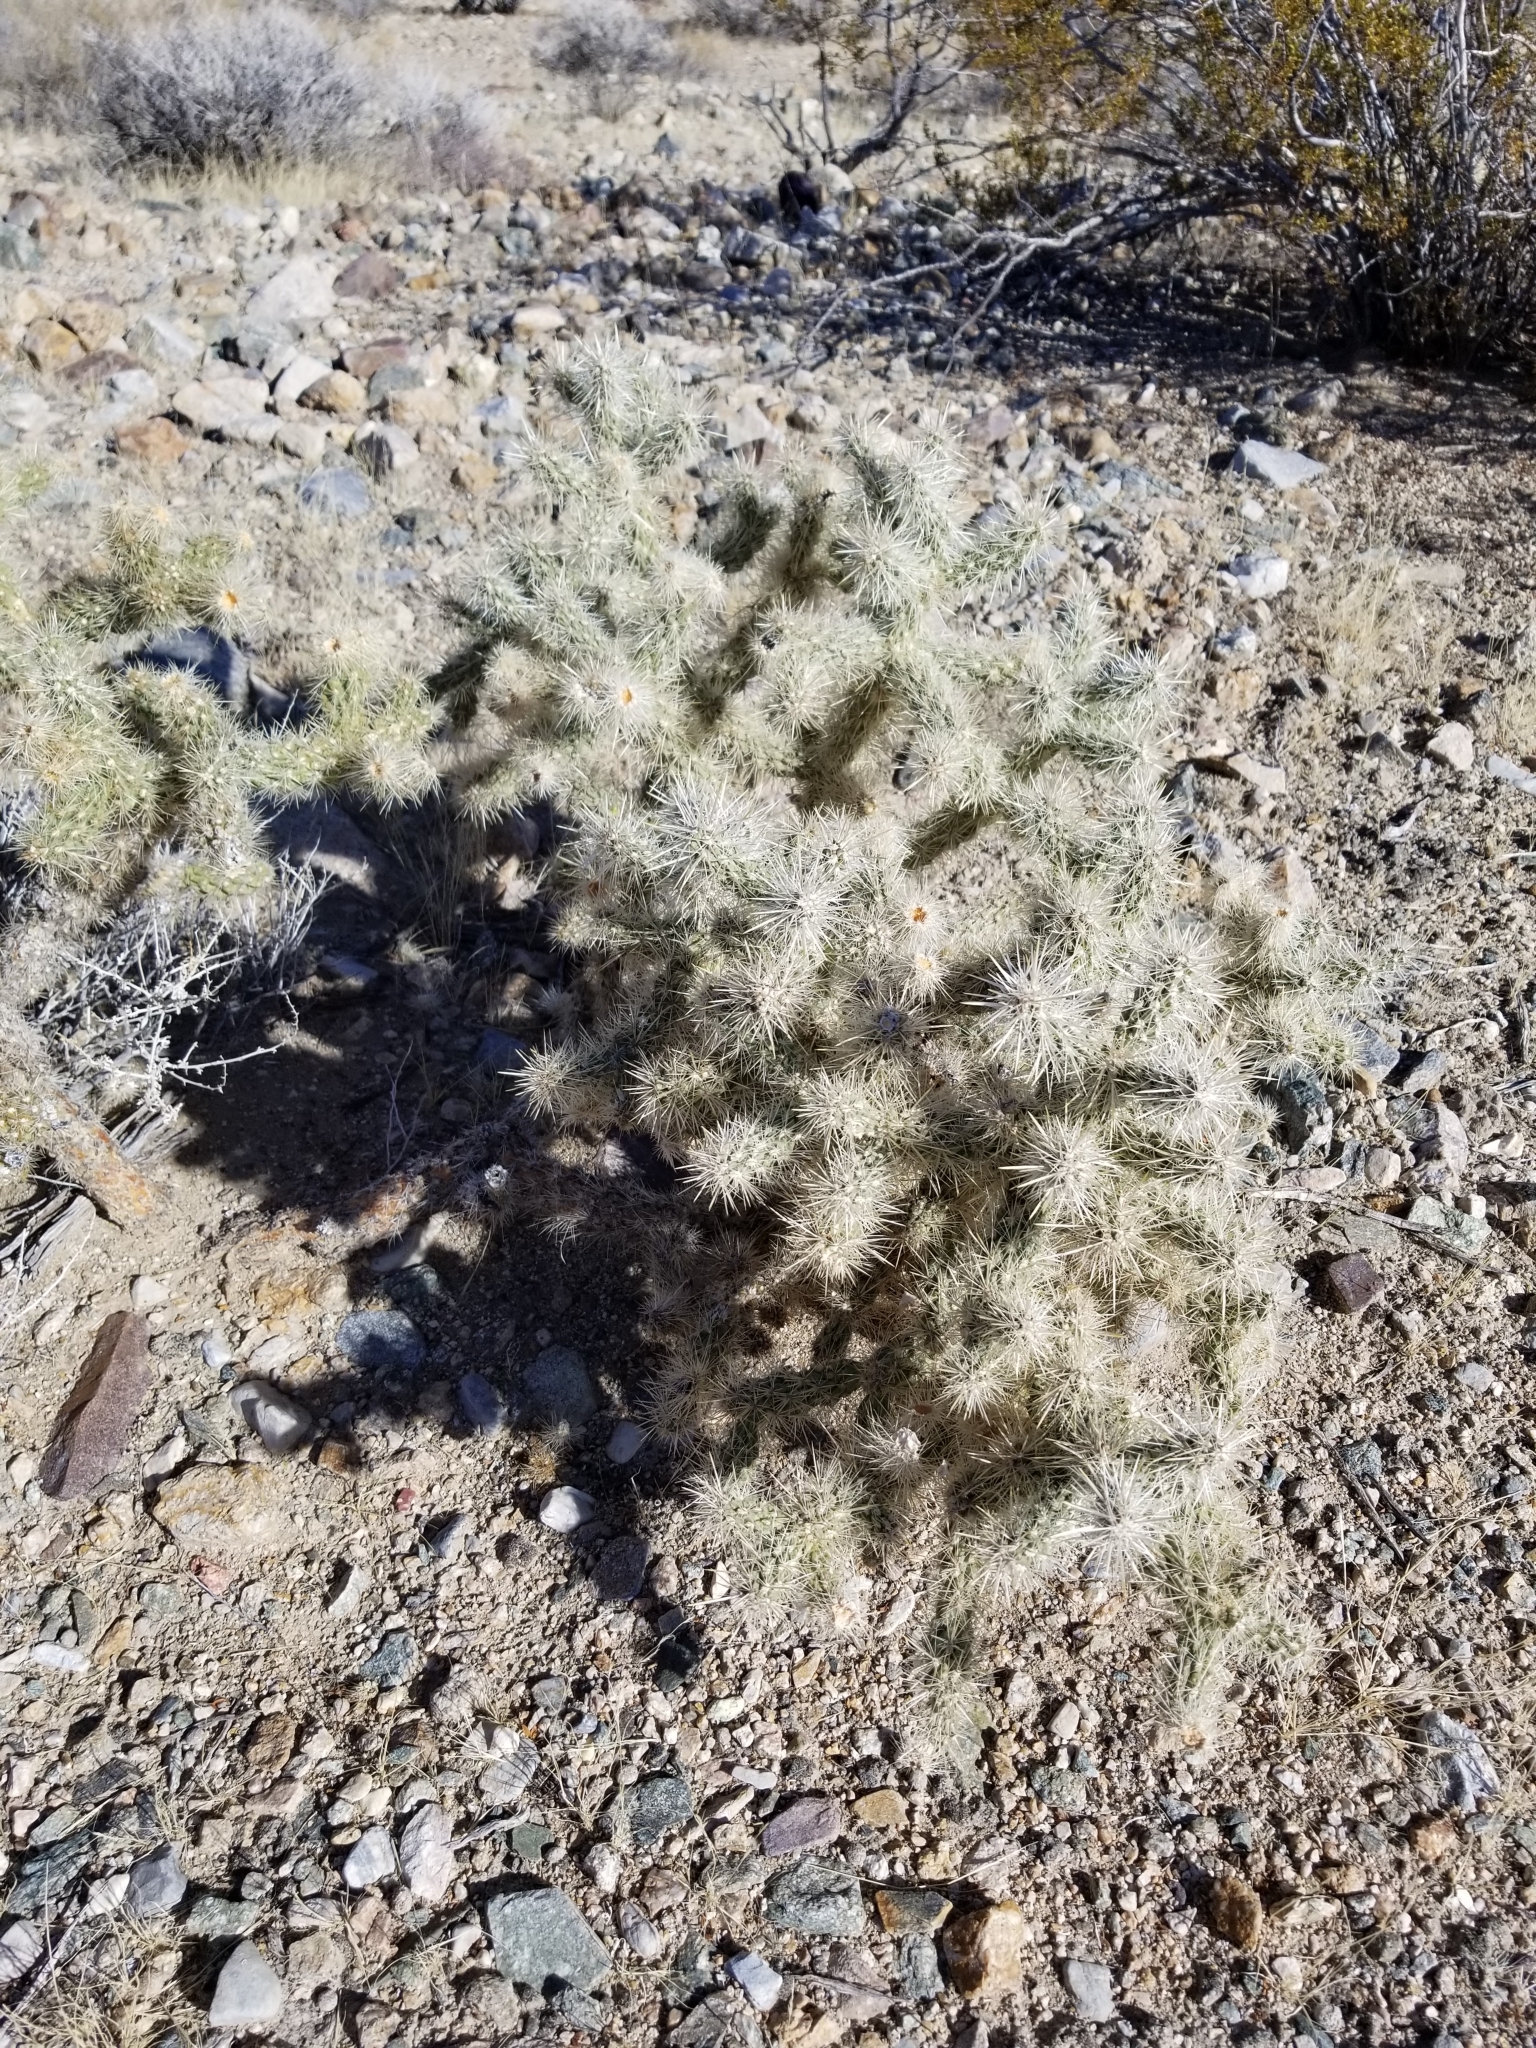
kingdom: Plantae
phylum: Tracheophyta
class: Magnoliopsida
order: Caryophyllales
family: Cactaceae
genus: Cylindropuntia
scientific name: Cylindropuntia echinocarpa
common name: Ground cholla
